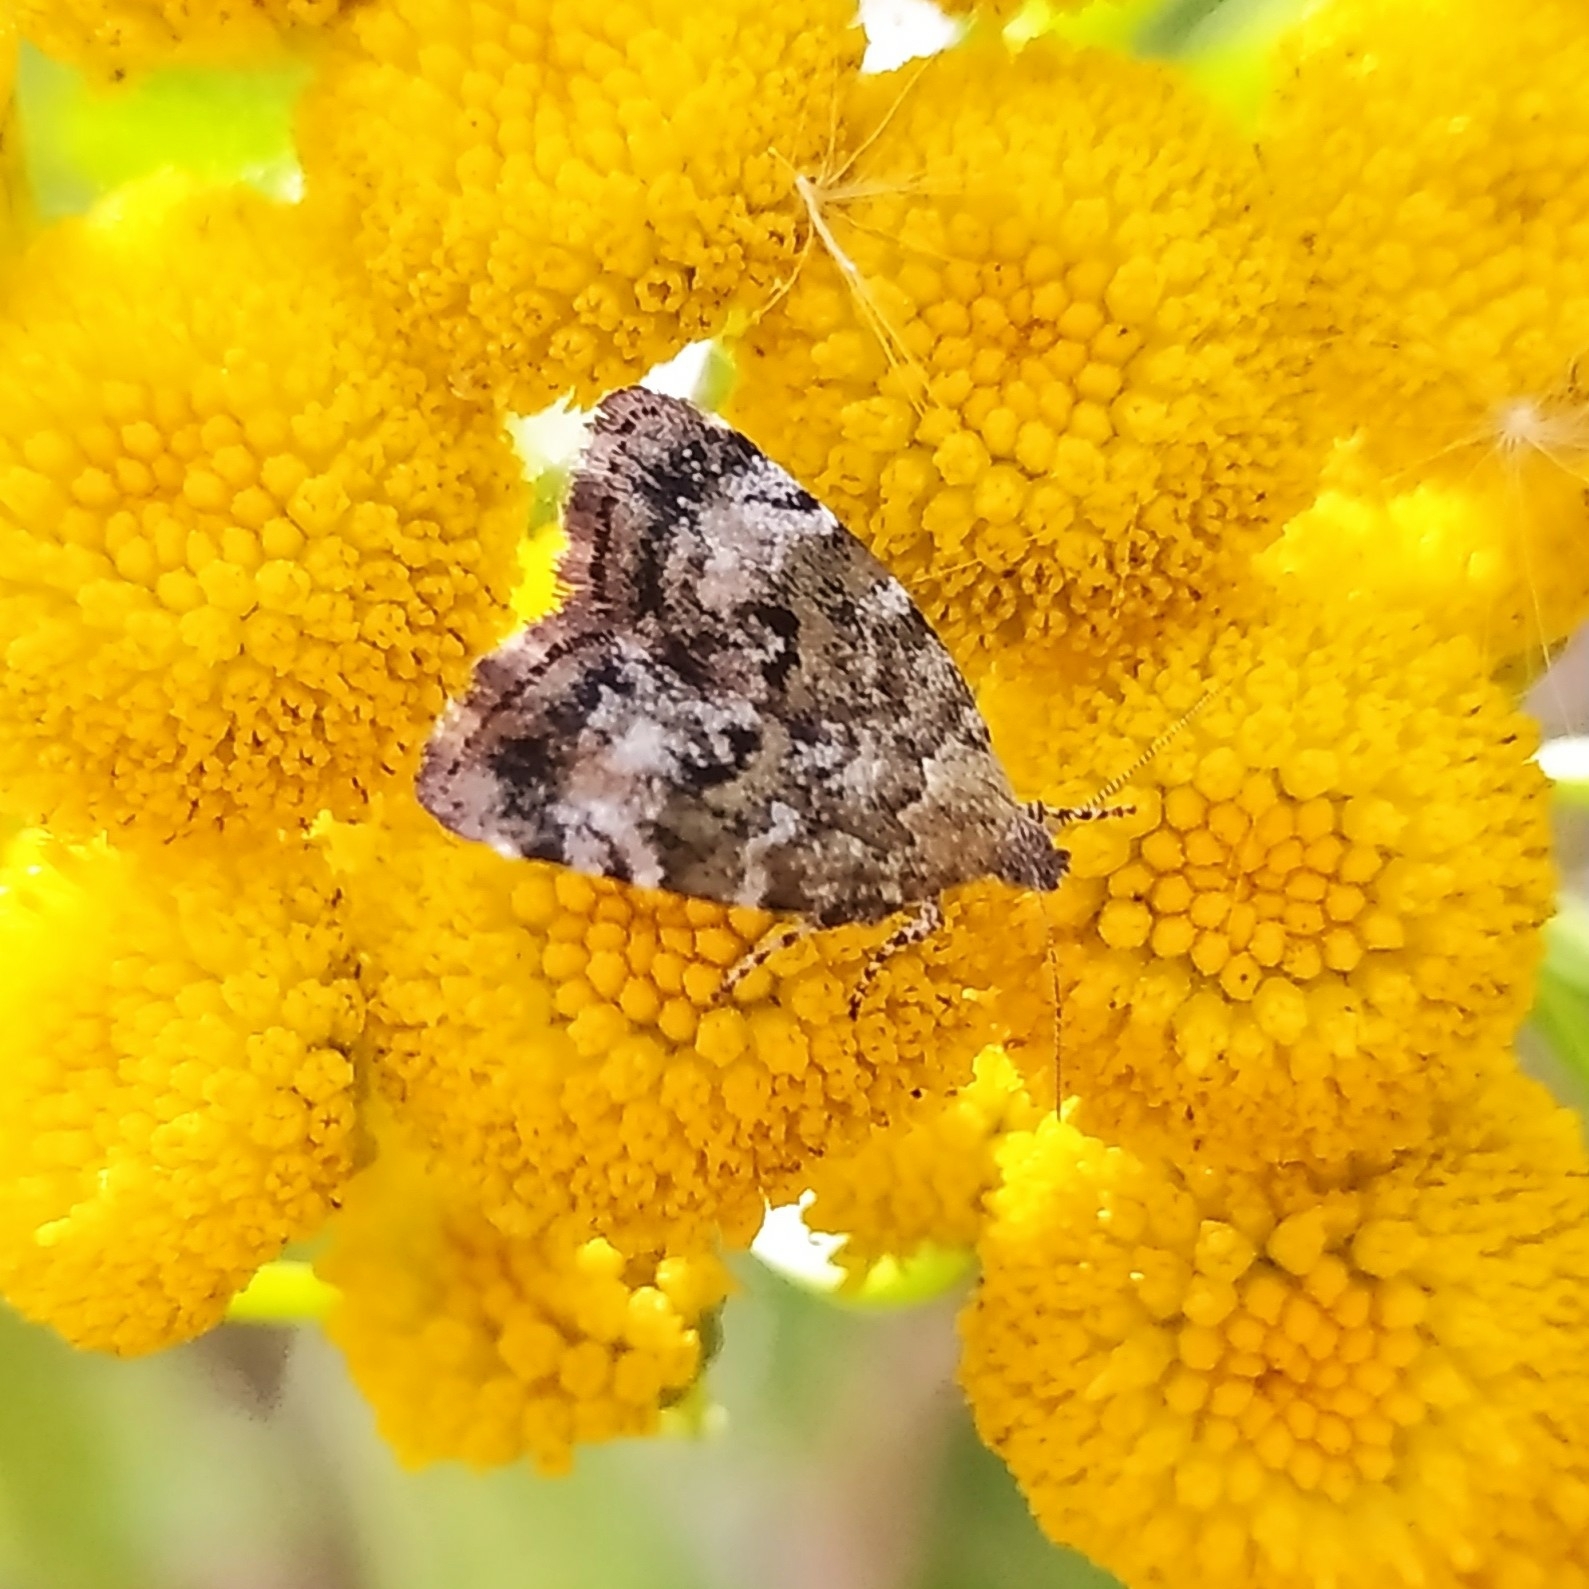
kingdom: Animalia
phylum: Arthropoda
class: Insecta
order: Lepidoptera
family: Choreutidae
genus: Choreutis
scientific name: Choreutis diana
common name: Inverness twitcher
